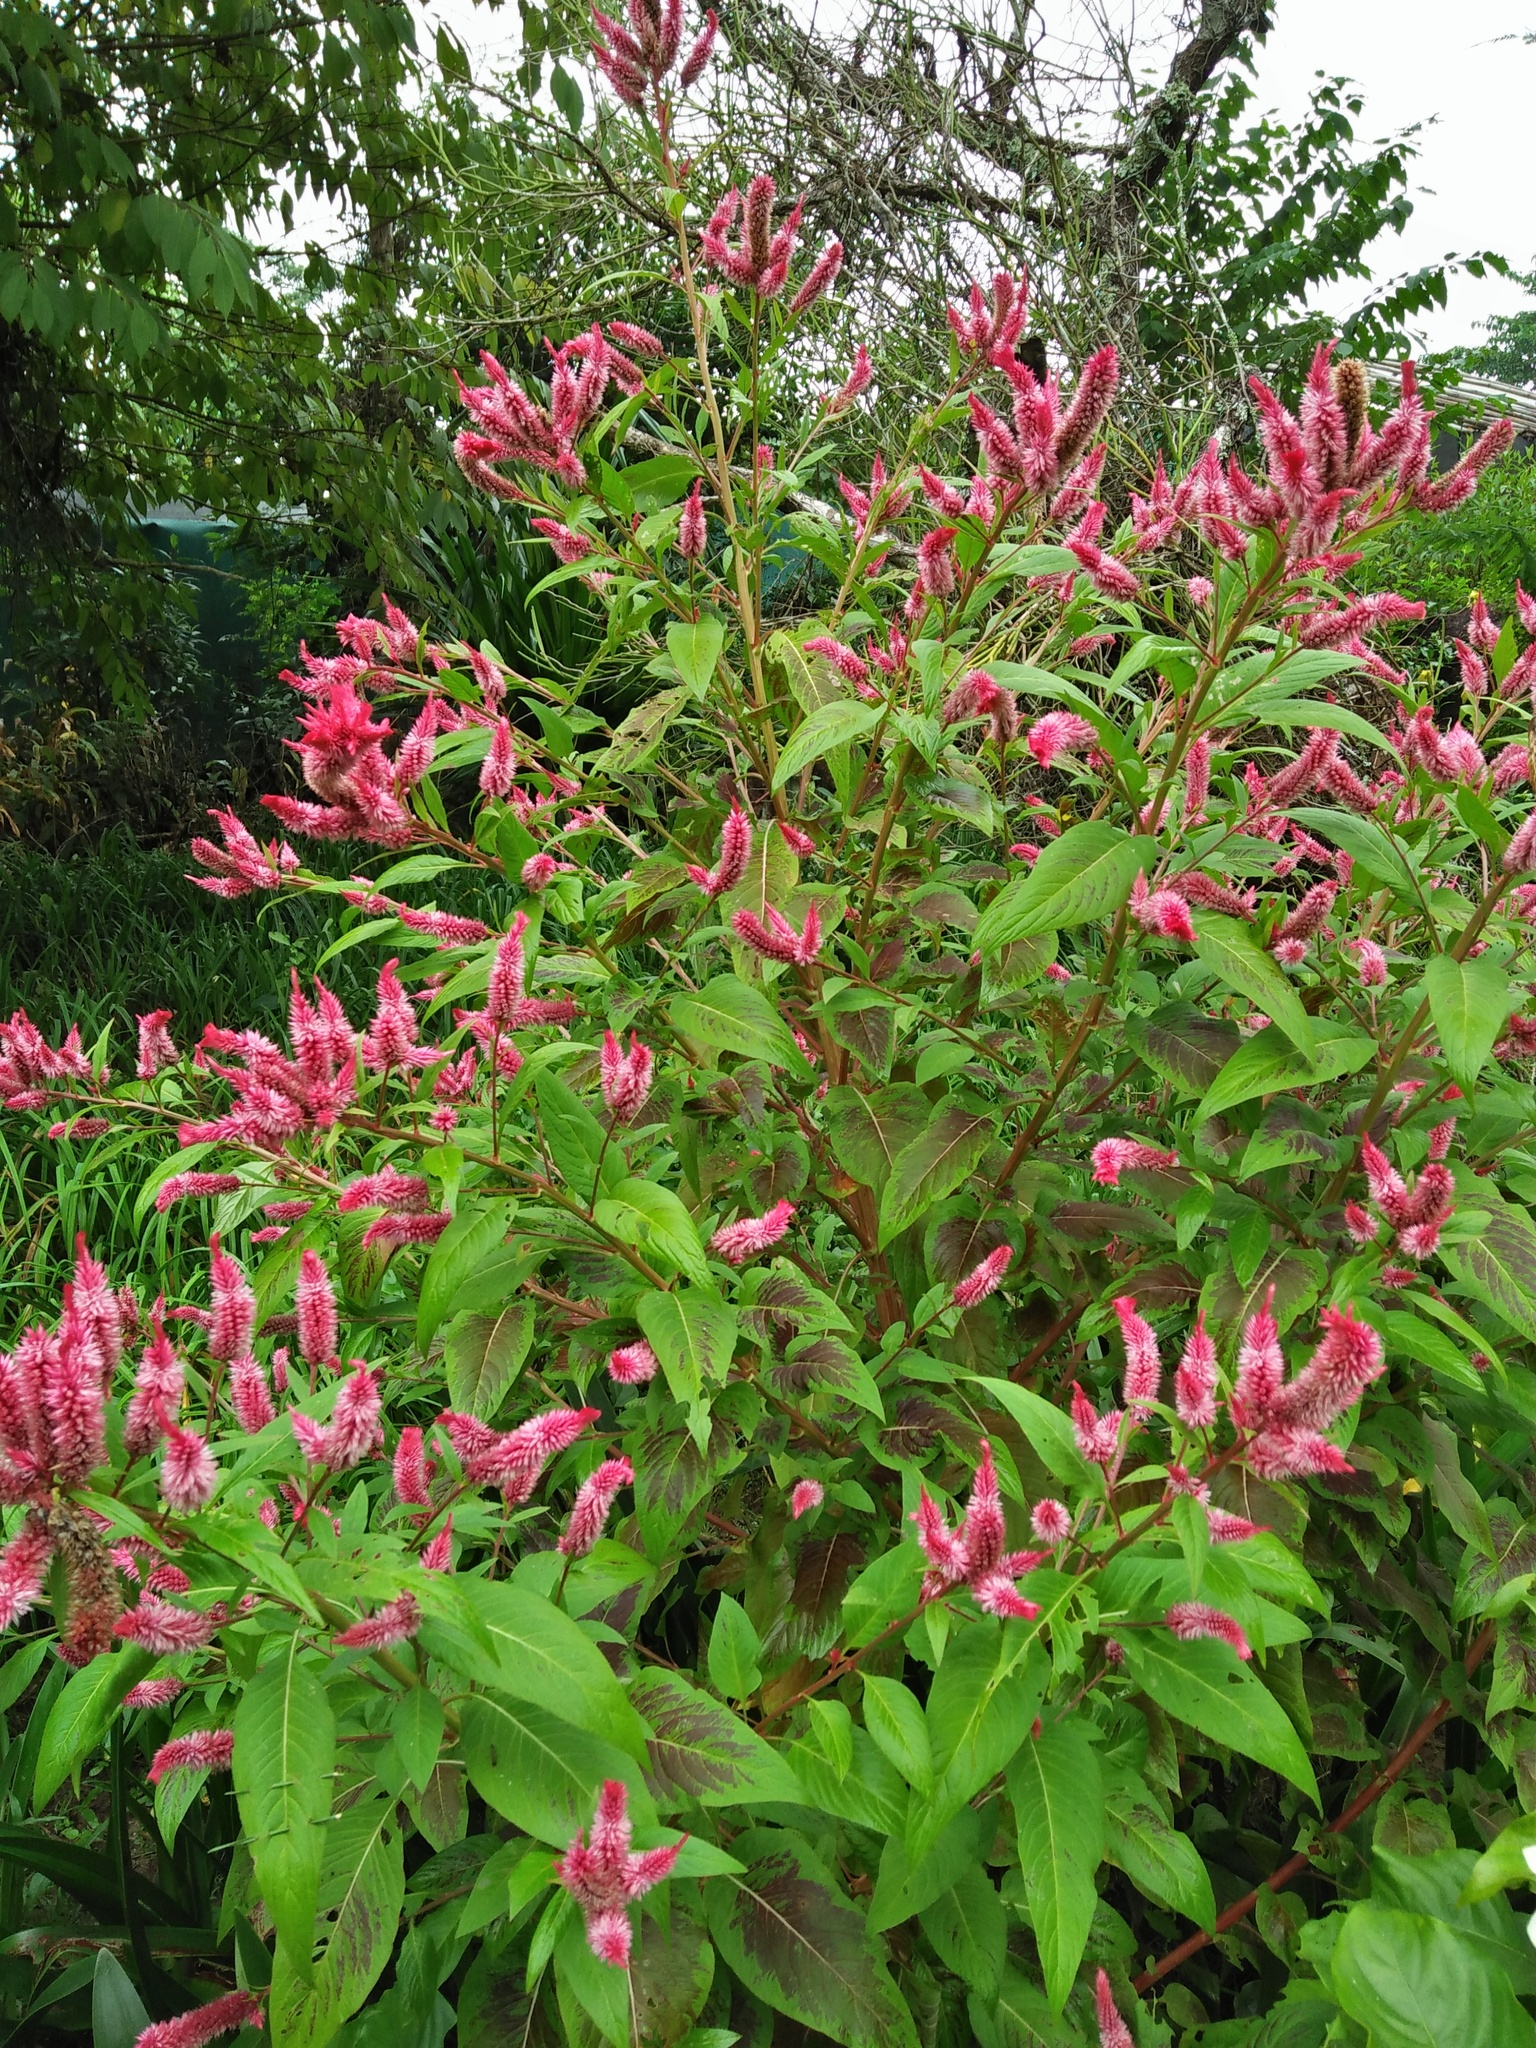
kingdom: Plantae
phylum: Tracheophyta
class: Magnoliopsida
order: Caryophyllales
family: Amaranthaceae
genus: Celosia
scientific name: Celosia argentea
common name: Feather cockscomb
